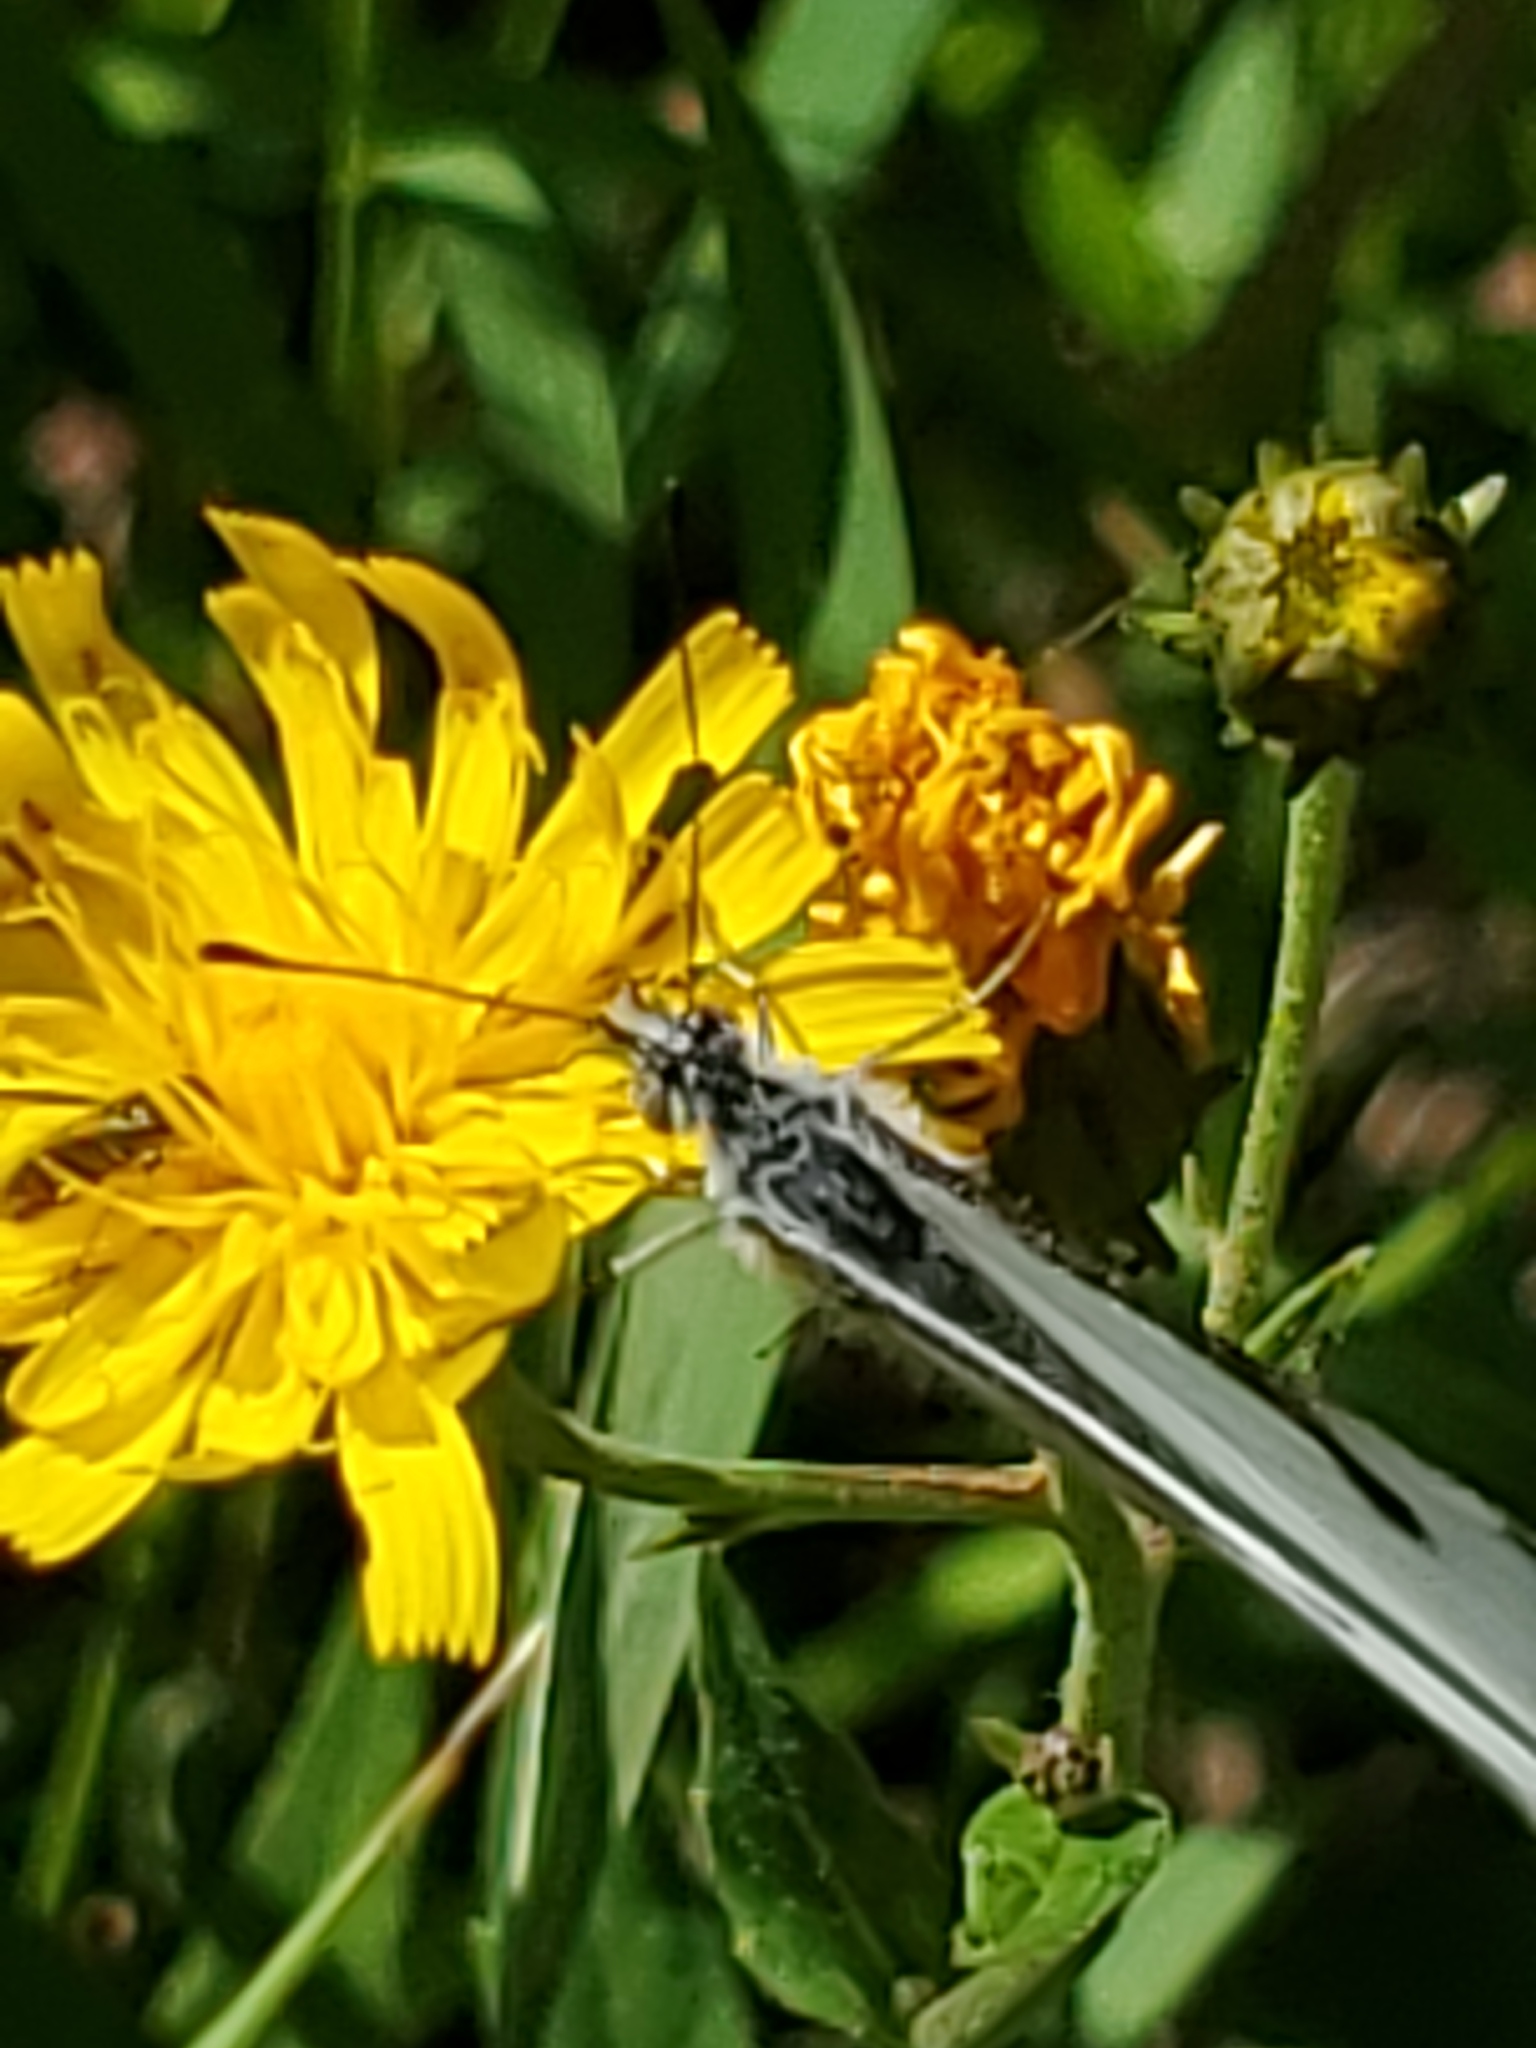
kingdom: Animalia
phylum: Arthropoda
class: Insecta
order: Lepidoptera
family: Pieridae
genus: Neophasia
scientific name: Neophasia menapia
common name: Pine white
